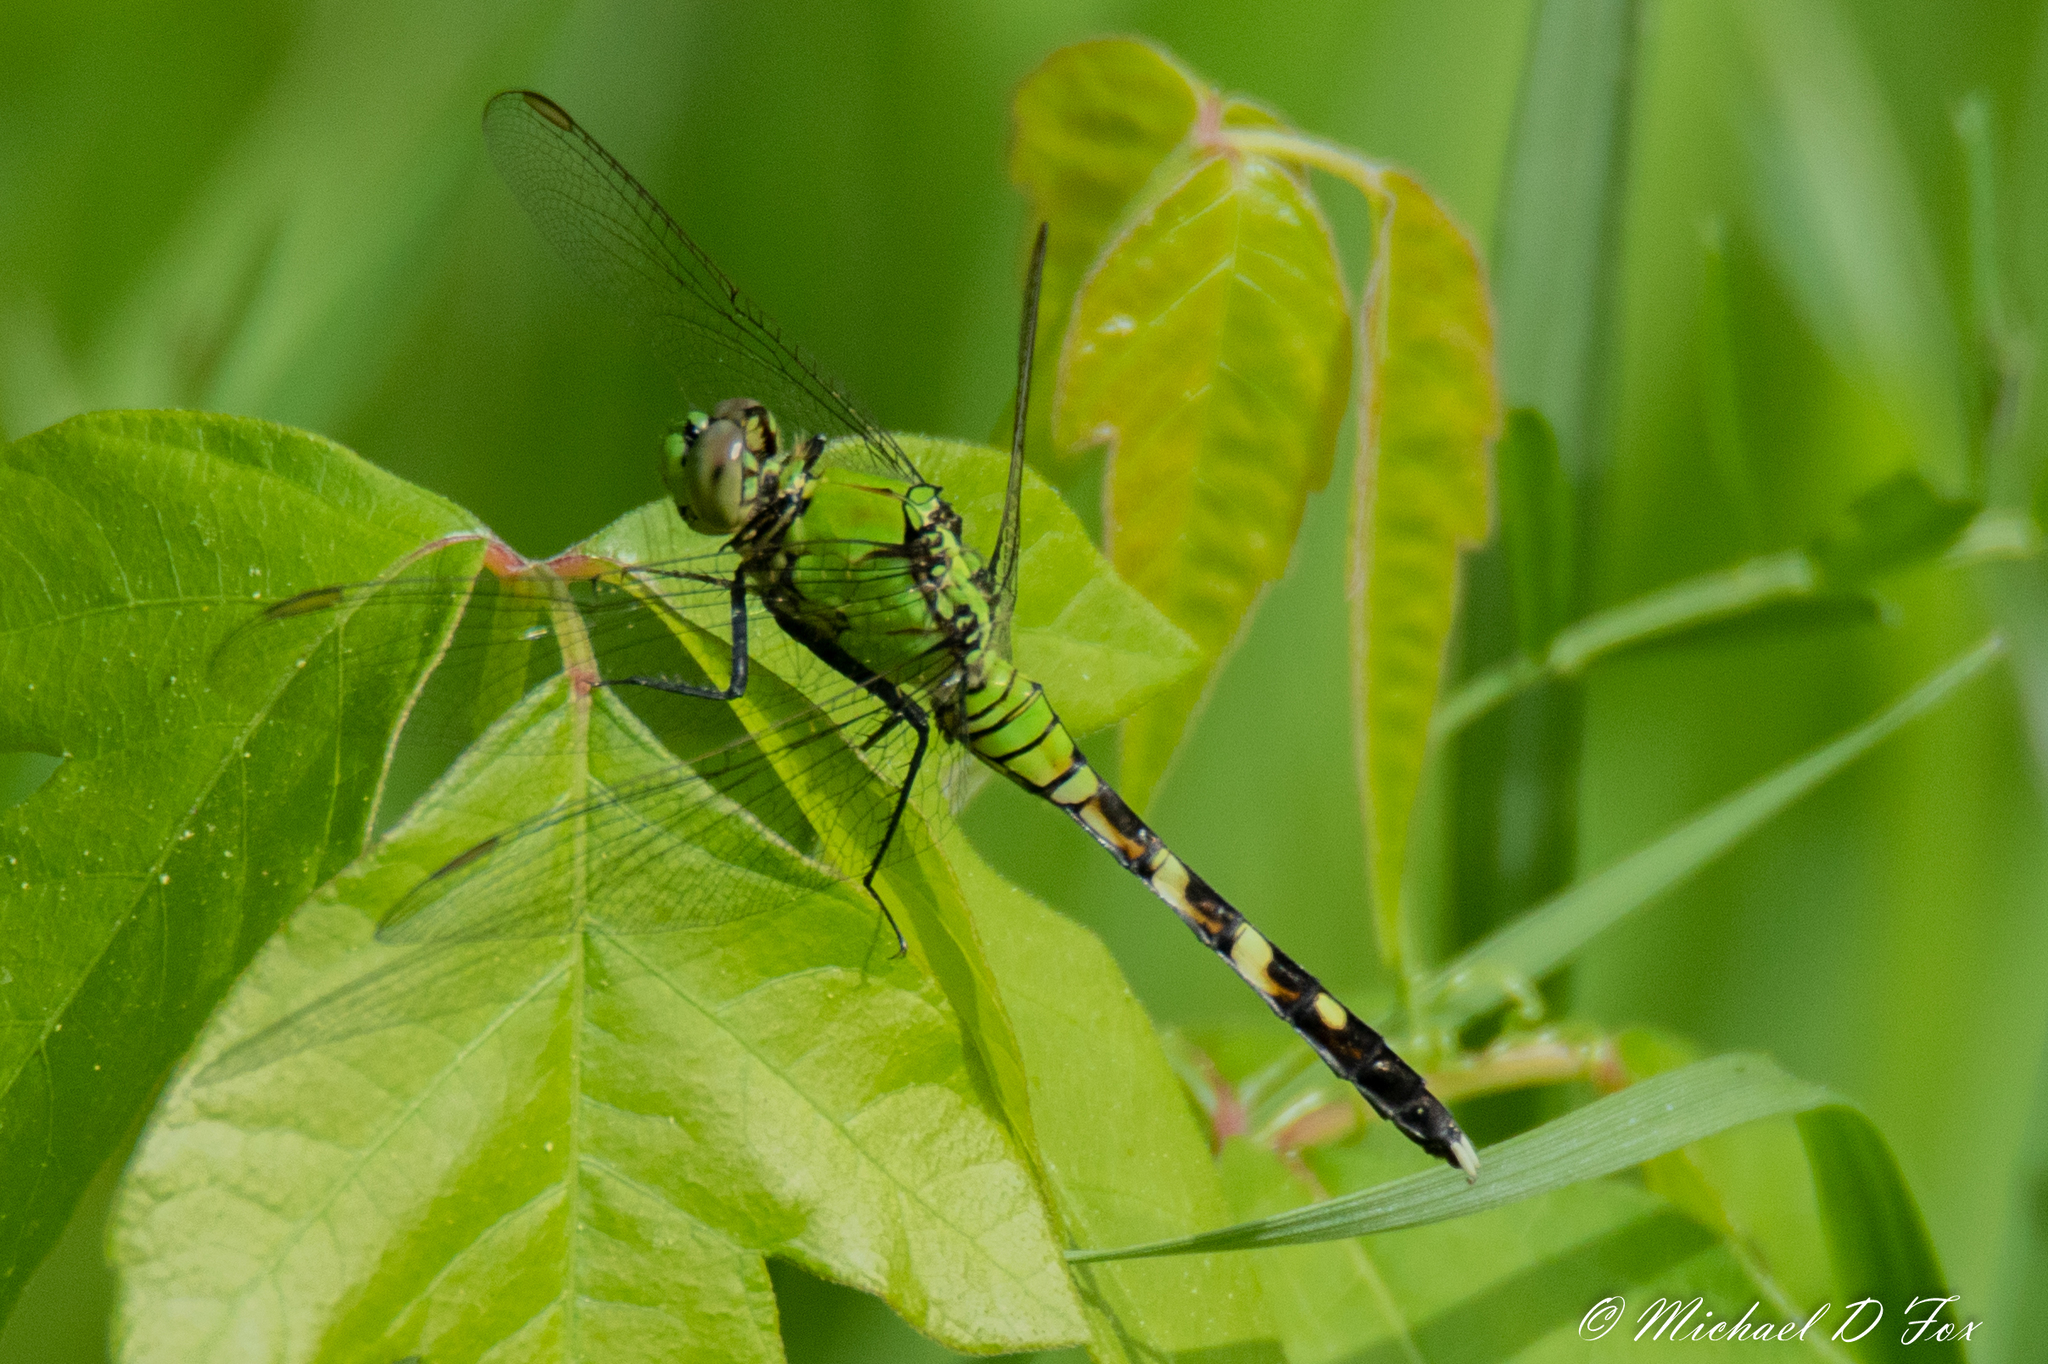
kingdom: Animalia
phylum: Arthropoda
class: Insecta
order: Odonata
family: Libellulidae
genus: Erythemis
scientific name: Erythemis simplicicollis
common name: Eastern pondhawk
